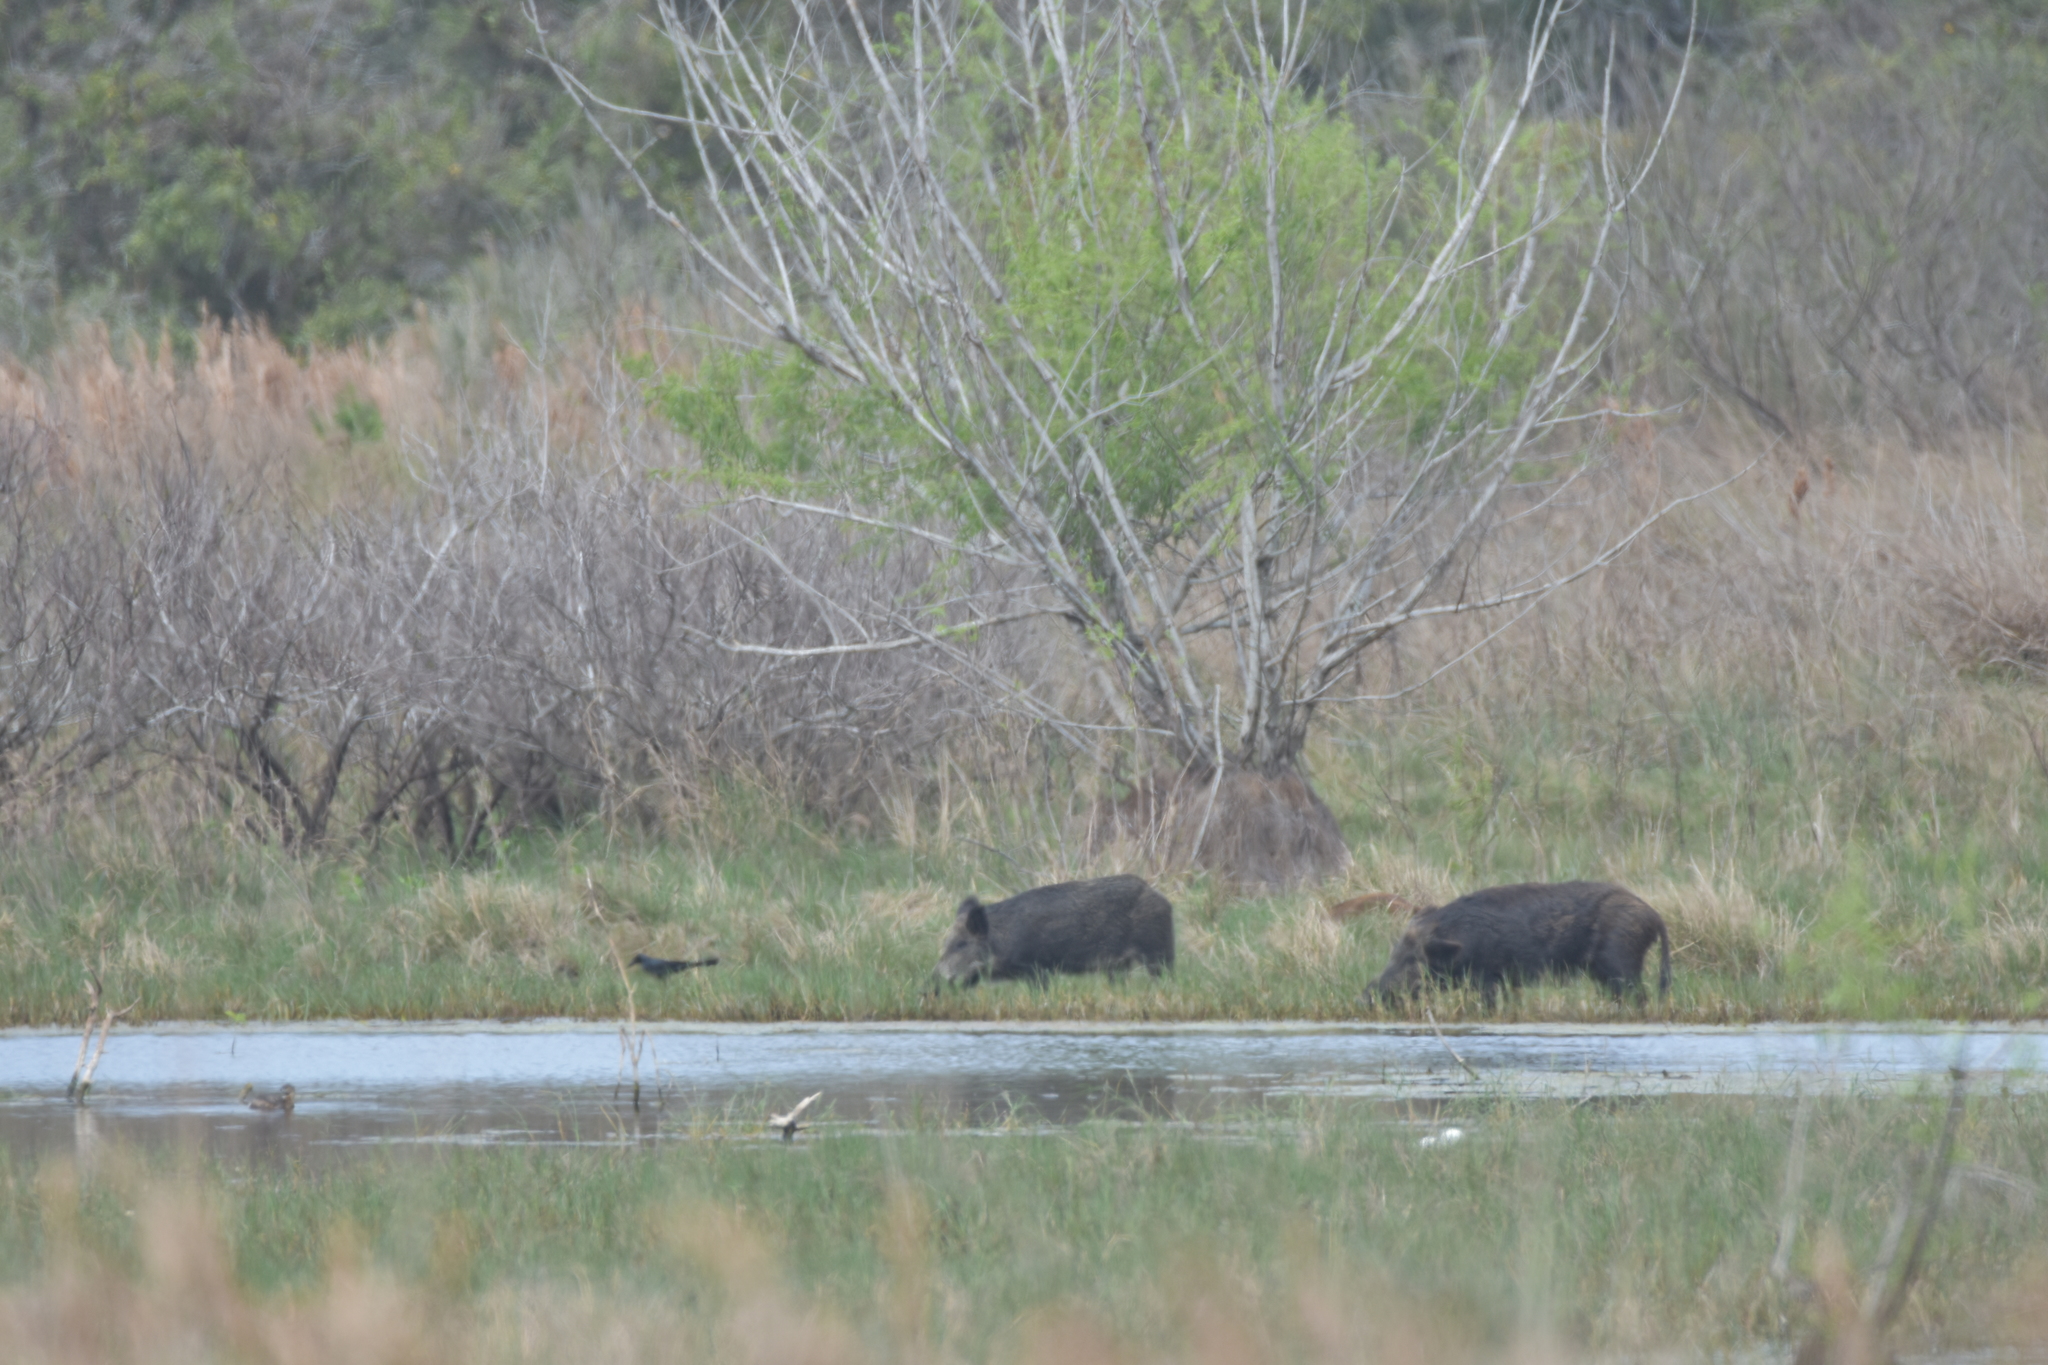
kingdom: Animalia
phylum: Chordata
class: Mammalia
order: Artiodactyla
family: Suidae
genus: Sus
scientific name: Sus scrofa
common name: Wild boar
